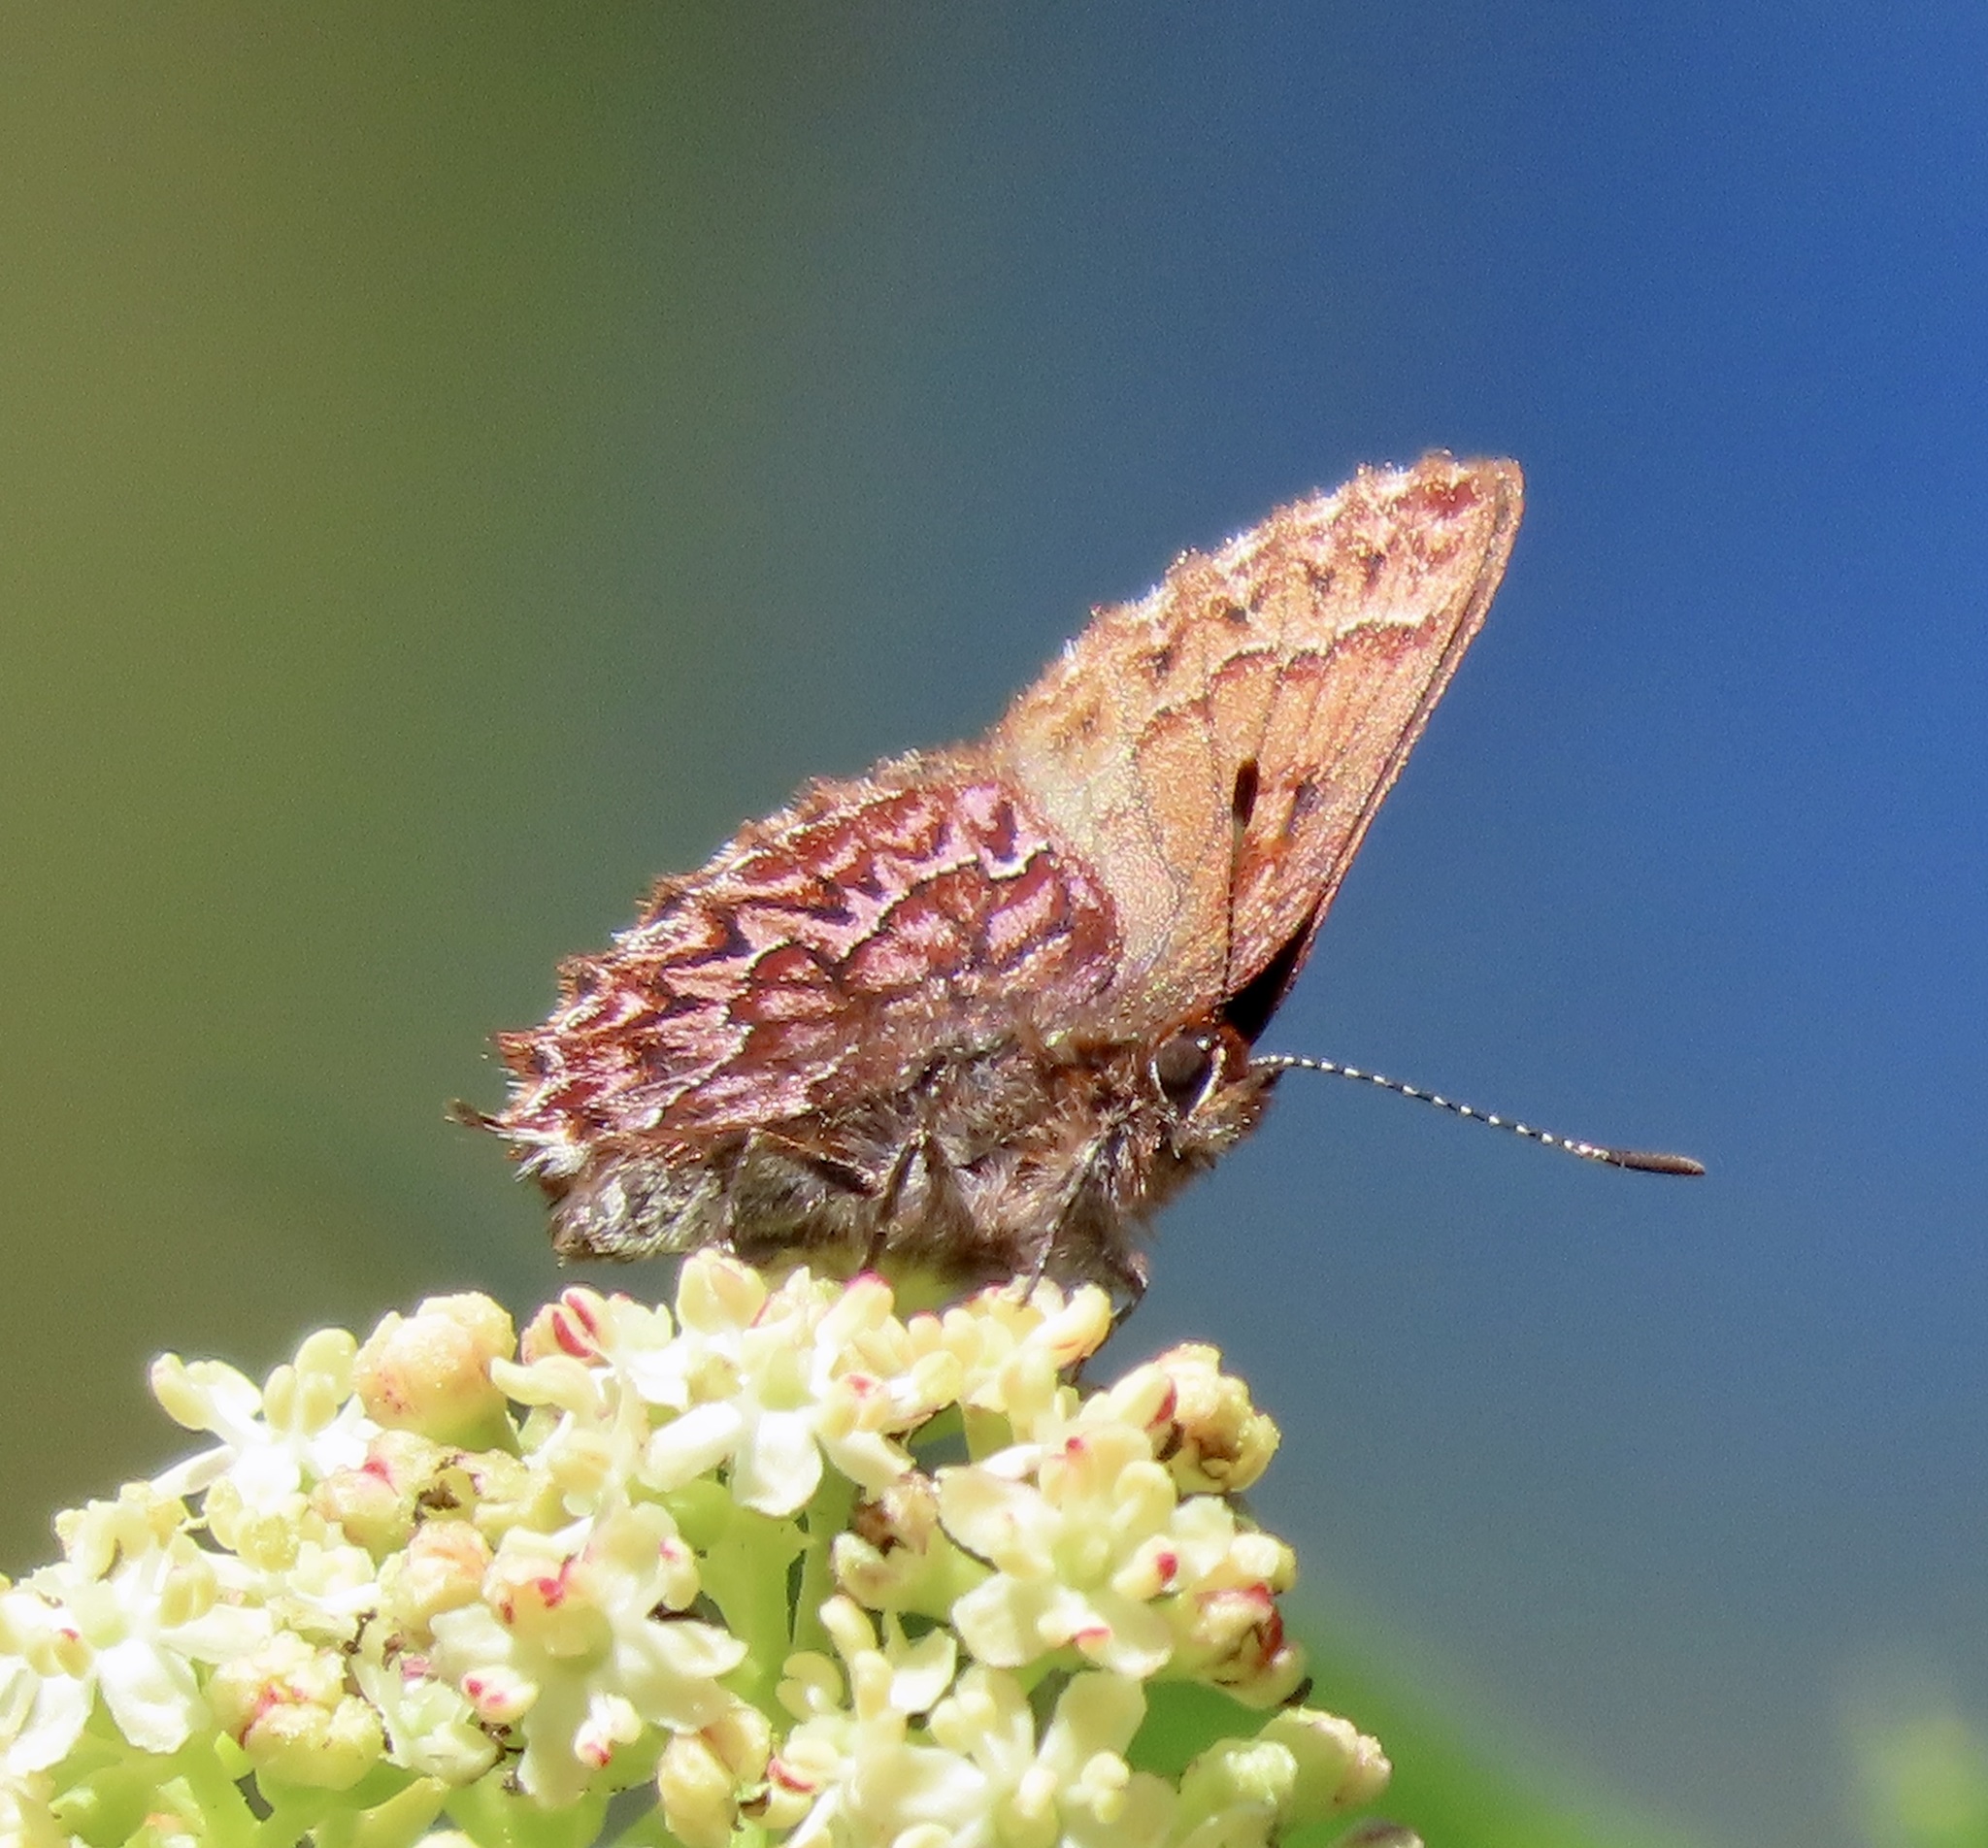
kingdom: Animalia
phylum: Arthropoda
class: Insecta
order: Lepidoptera
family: Lycaenidae
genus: Incisalia
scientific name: Incisalia eryphon
